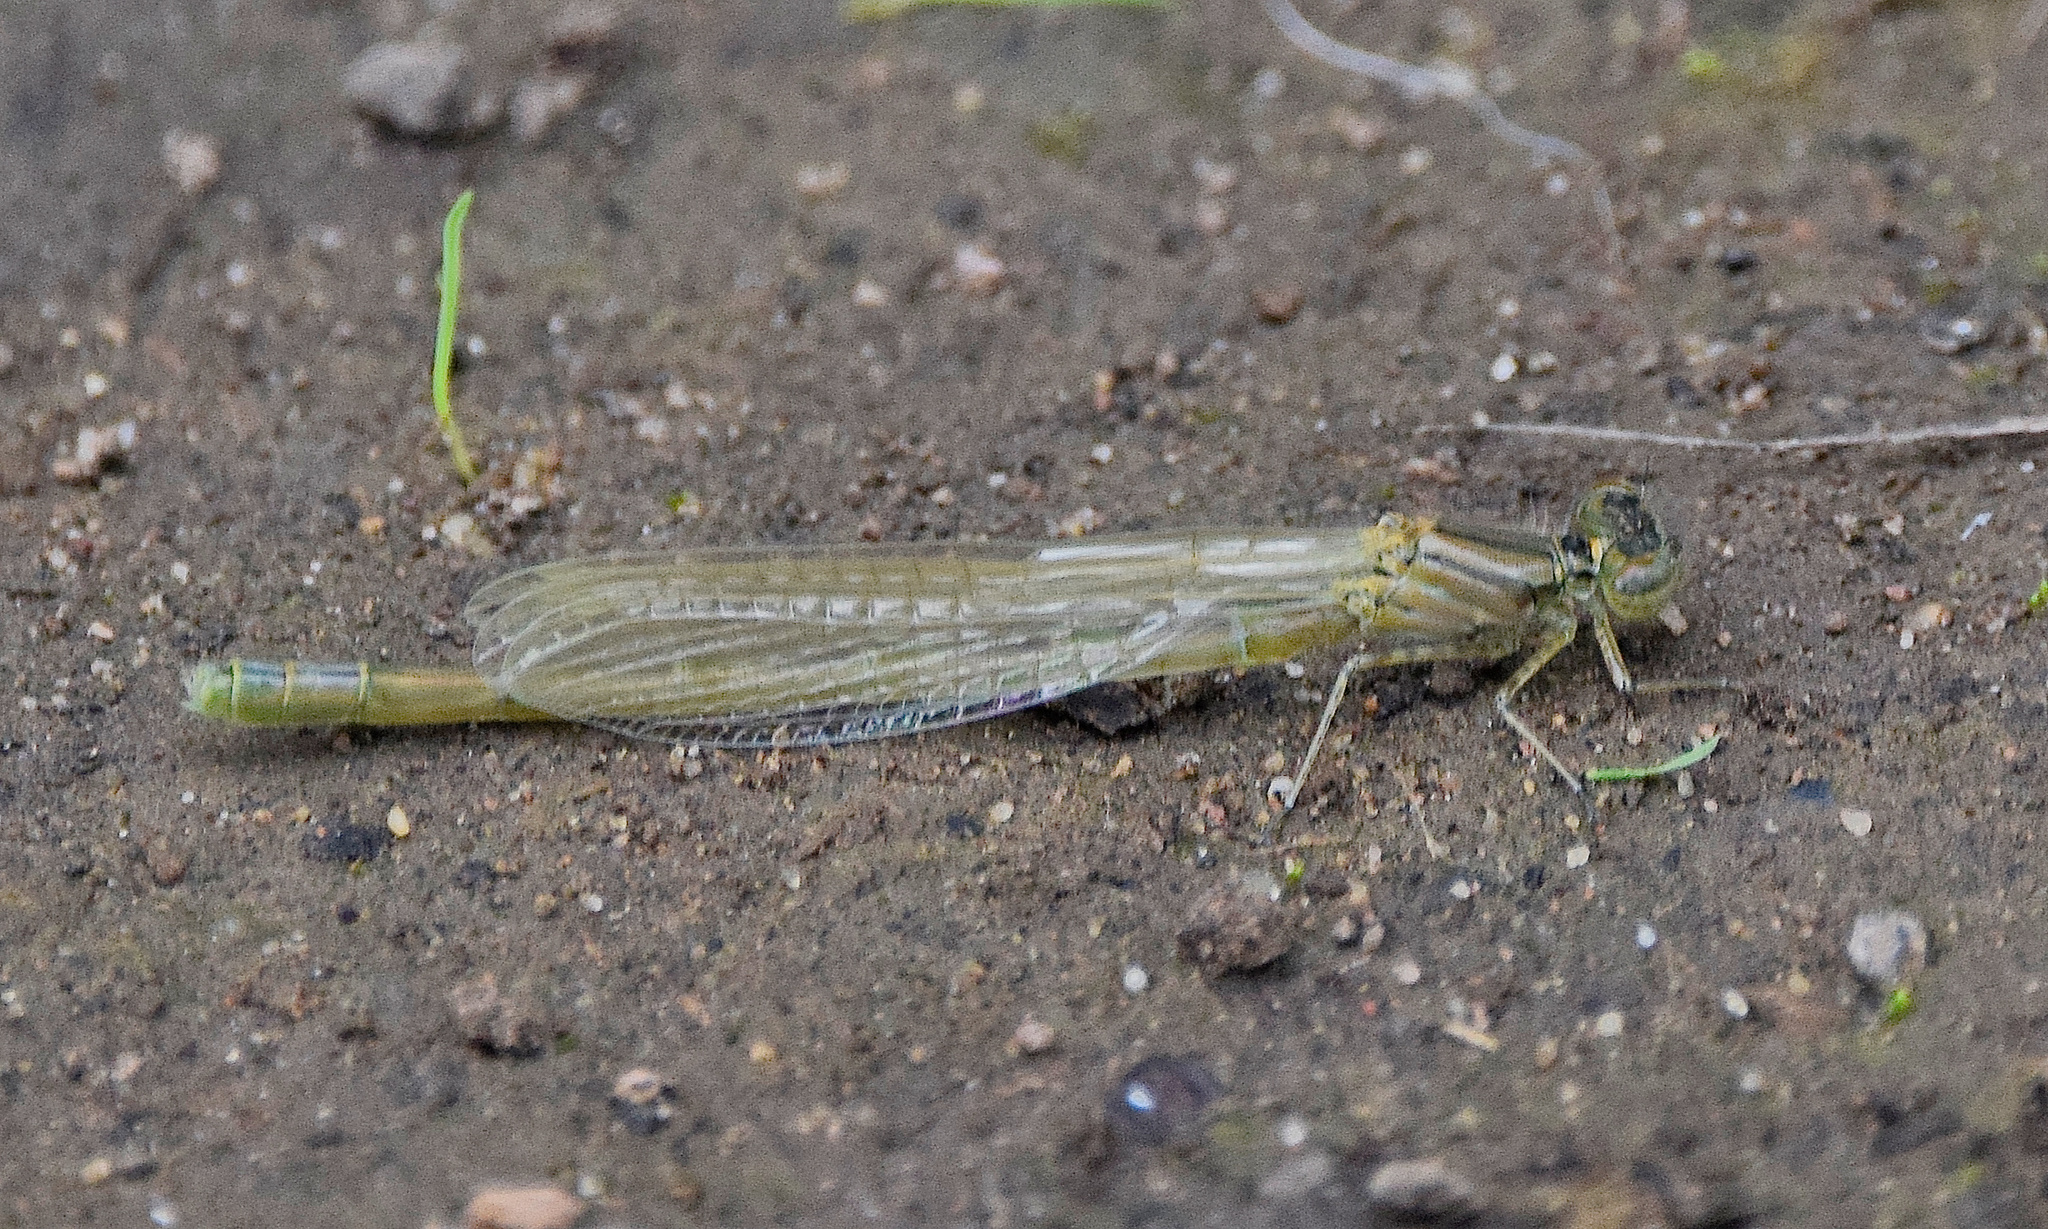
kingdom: Animalia
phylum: Arthropoda
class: Insecta
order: Odonata
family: Coenagrionidae
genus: Enallagma
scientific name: Enallagma cyathigerum
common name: Common blue damselfly
